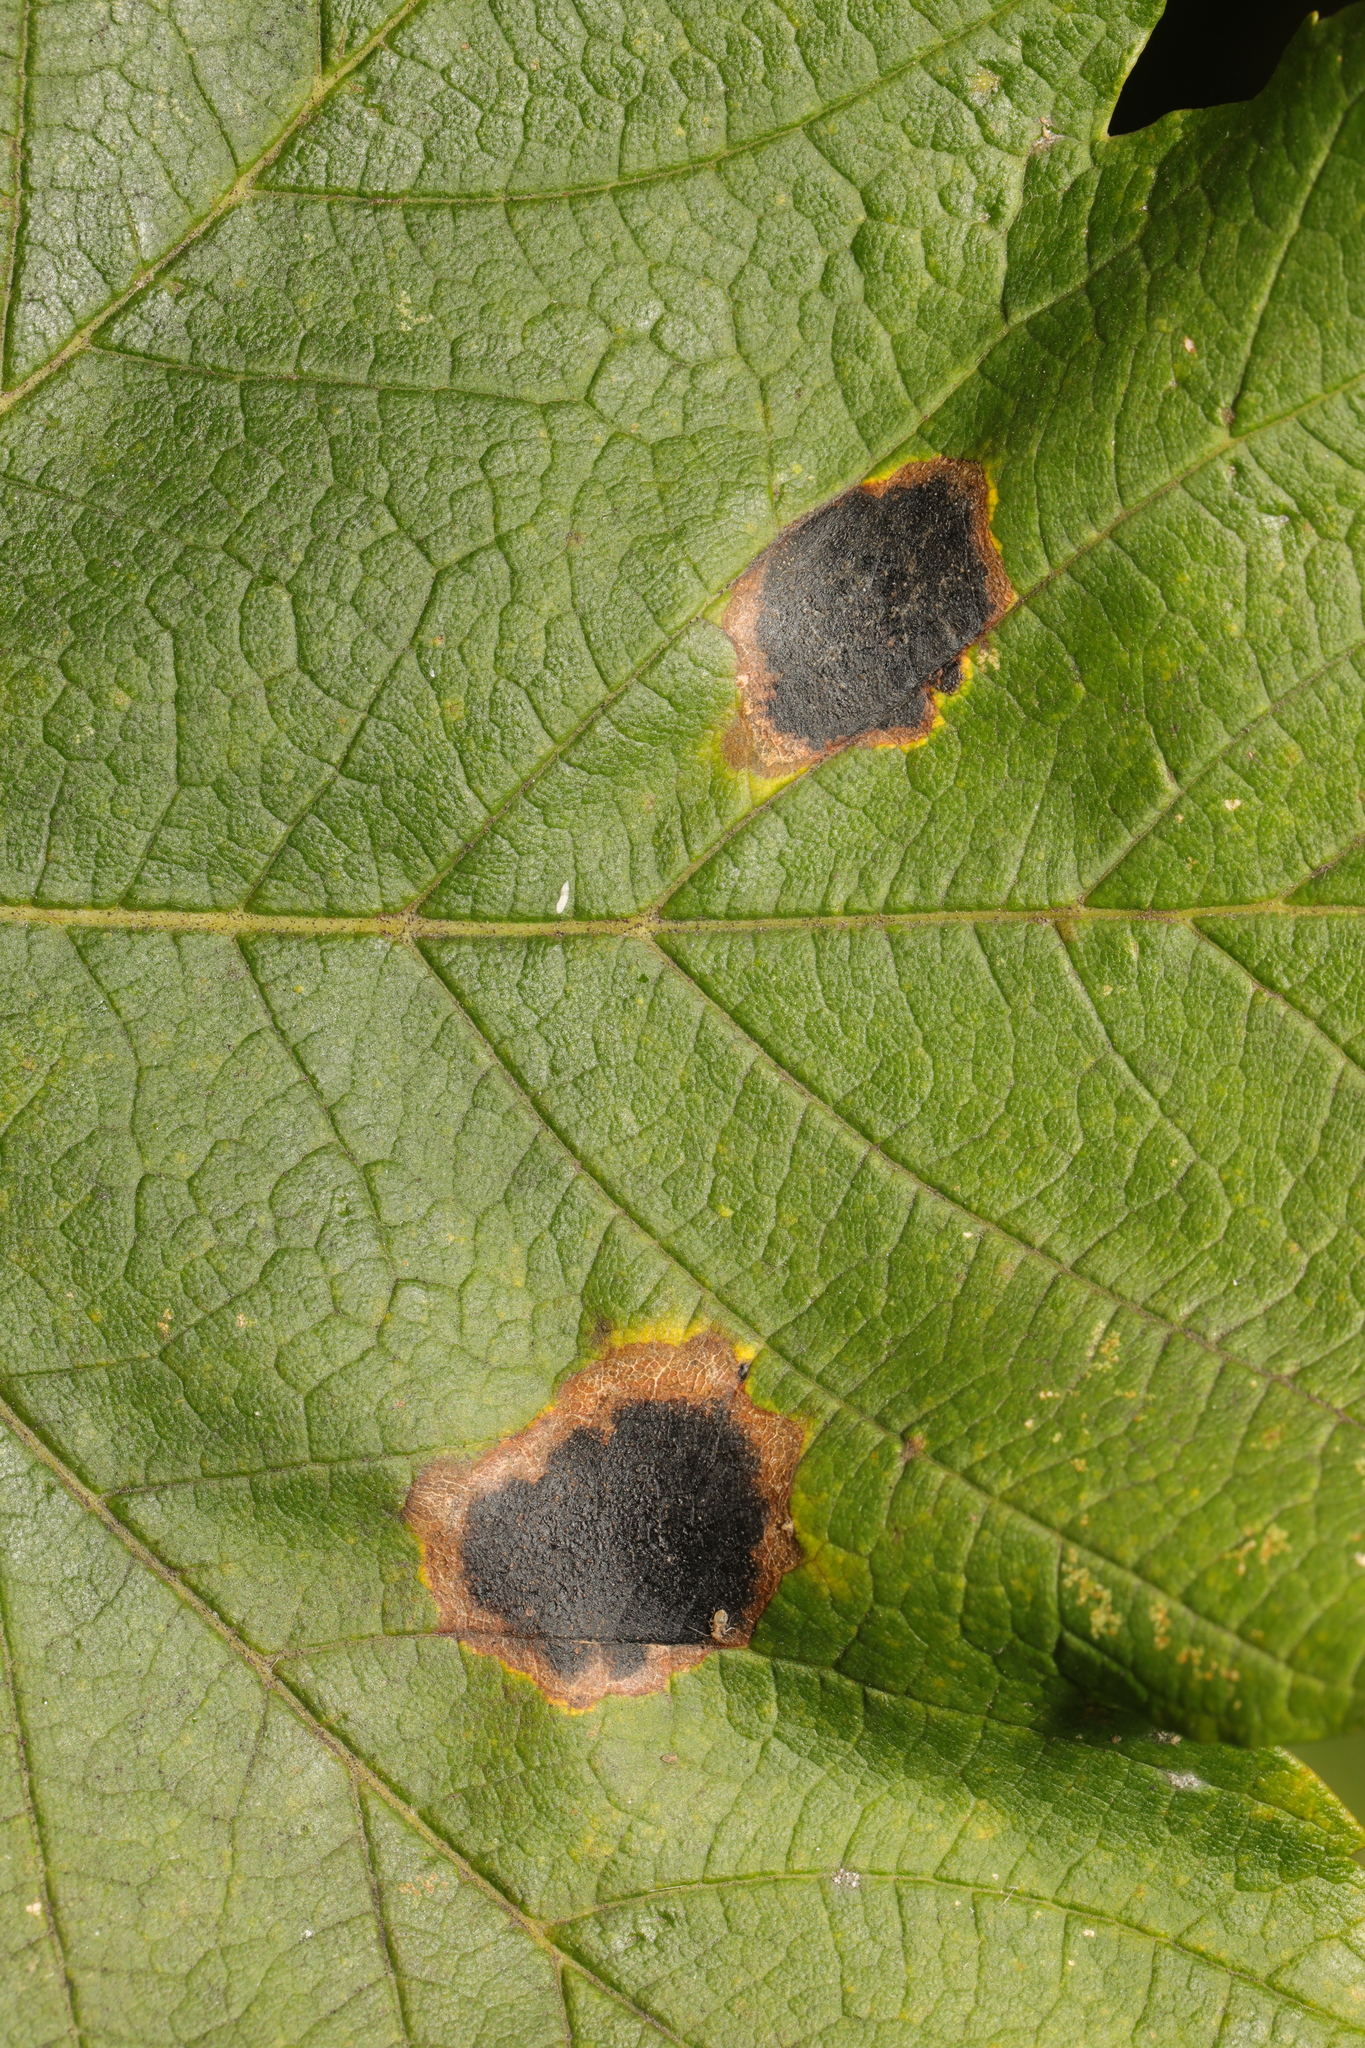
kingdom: Fungi
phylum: Ascomycota
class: Leotiomycetes
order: Rhytismatales
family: Rhytismataceae
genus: Rhytisma
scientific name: Rhytisma acerinum
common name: European tar spot
